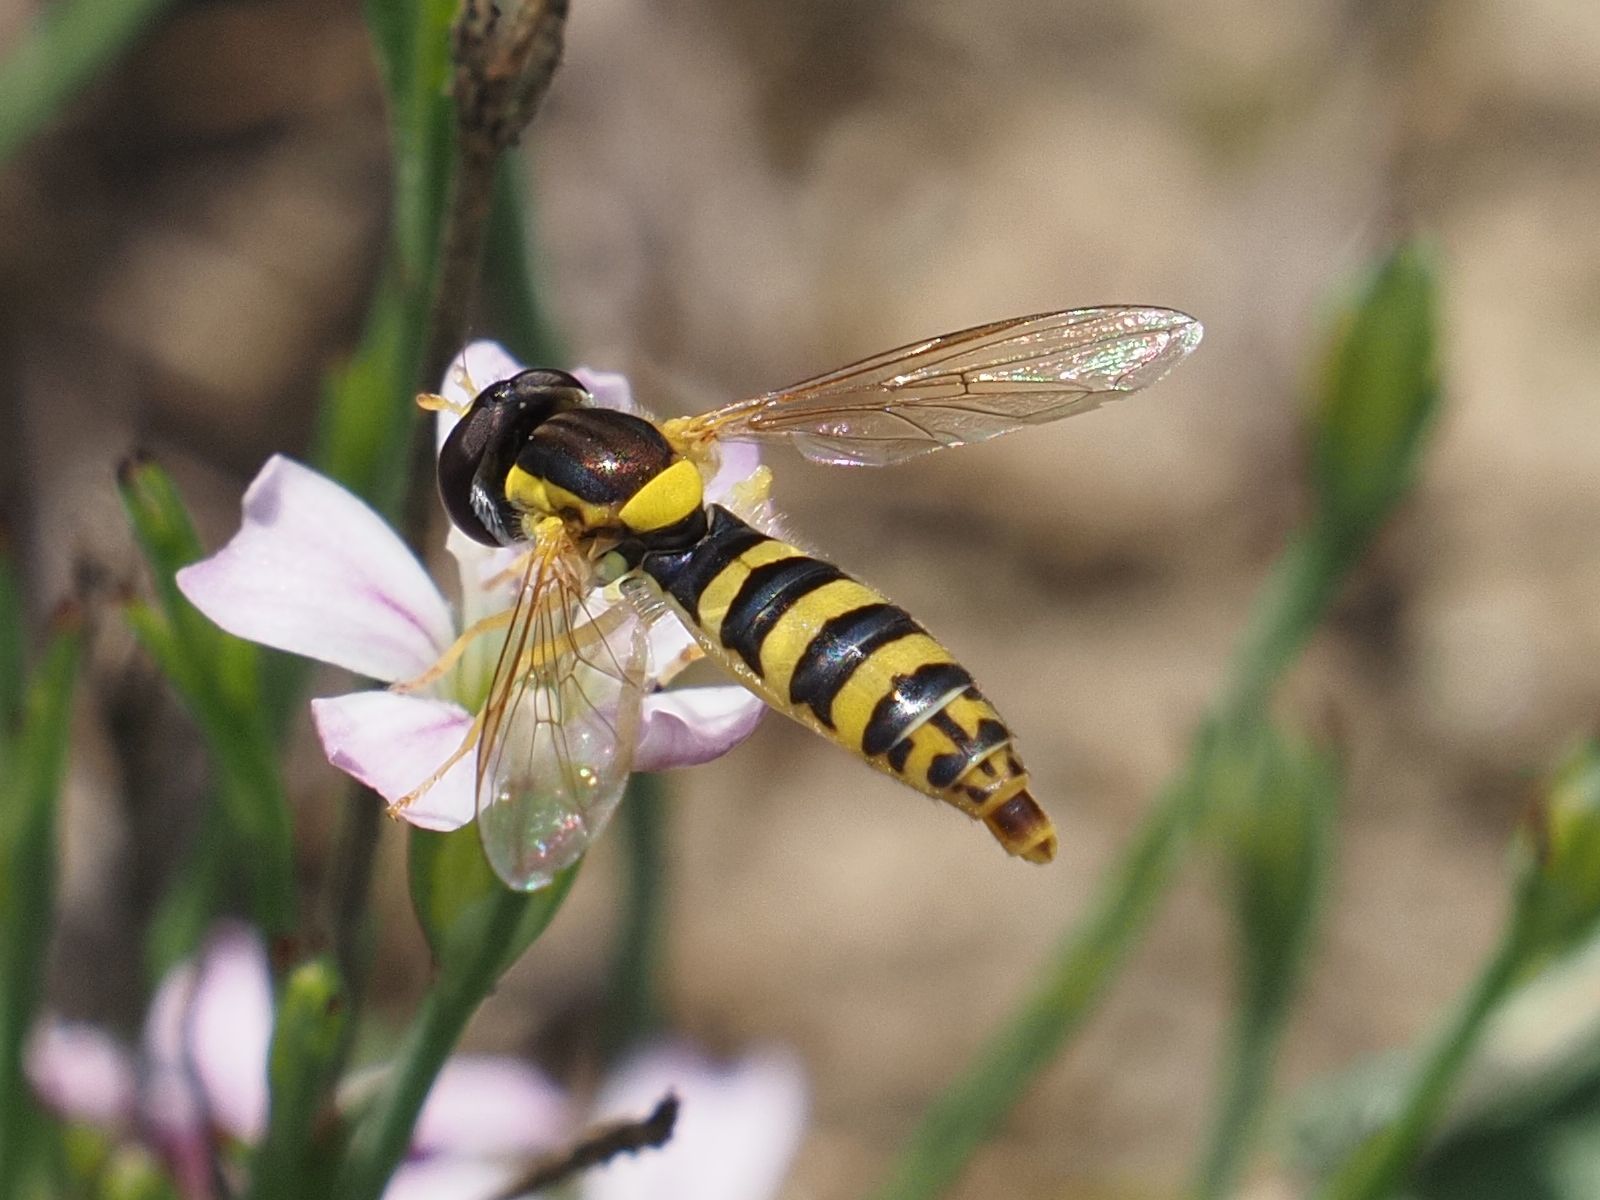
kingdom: Animalia
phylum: Arthropoda
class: Insecta
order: Diptera
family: Syrphidae
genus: Sphaerophoria
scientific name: Sphaerophoria
